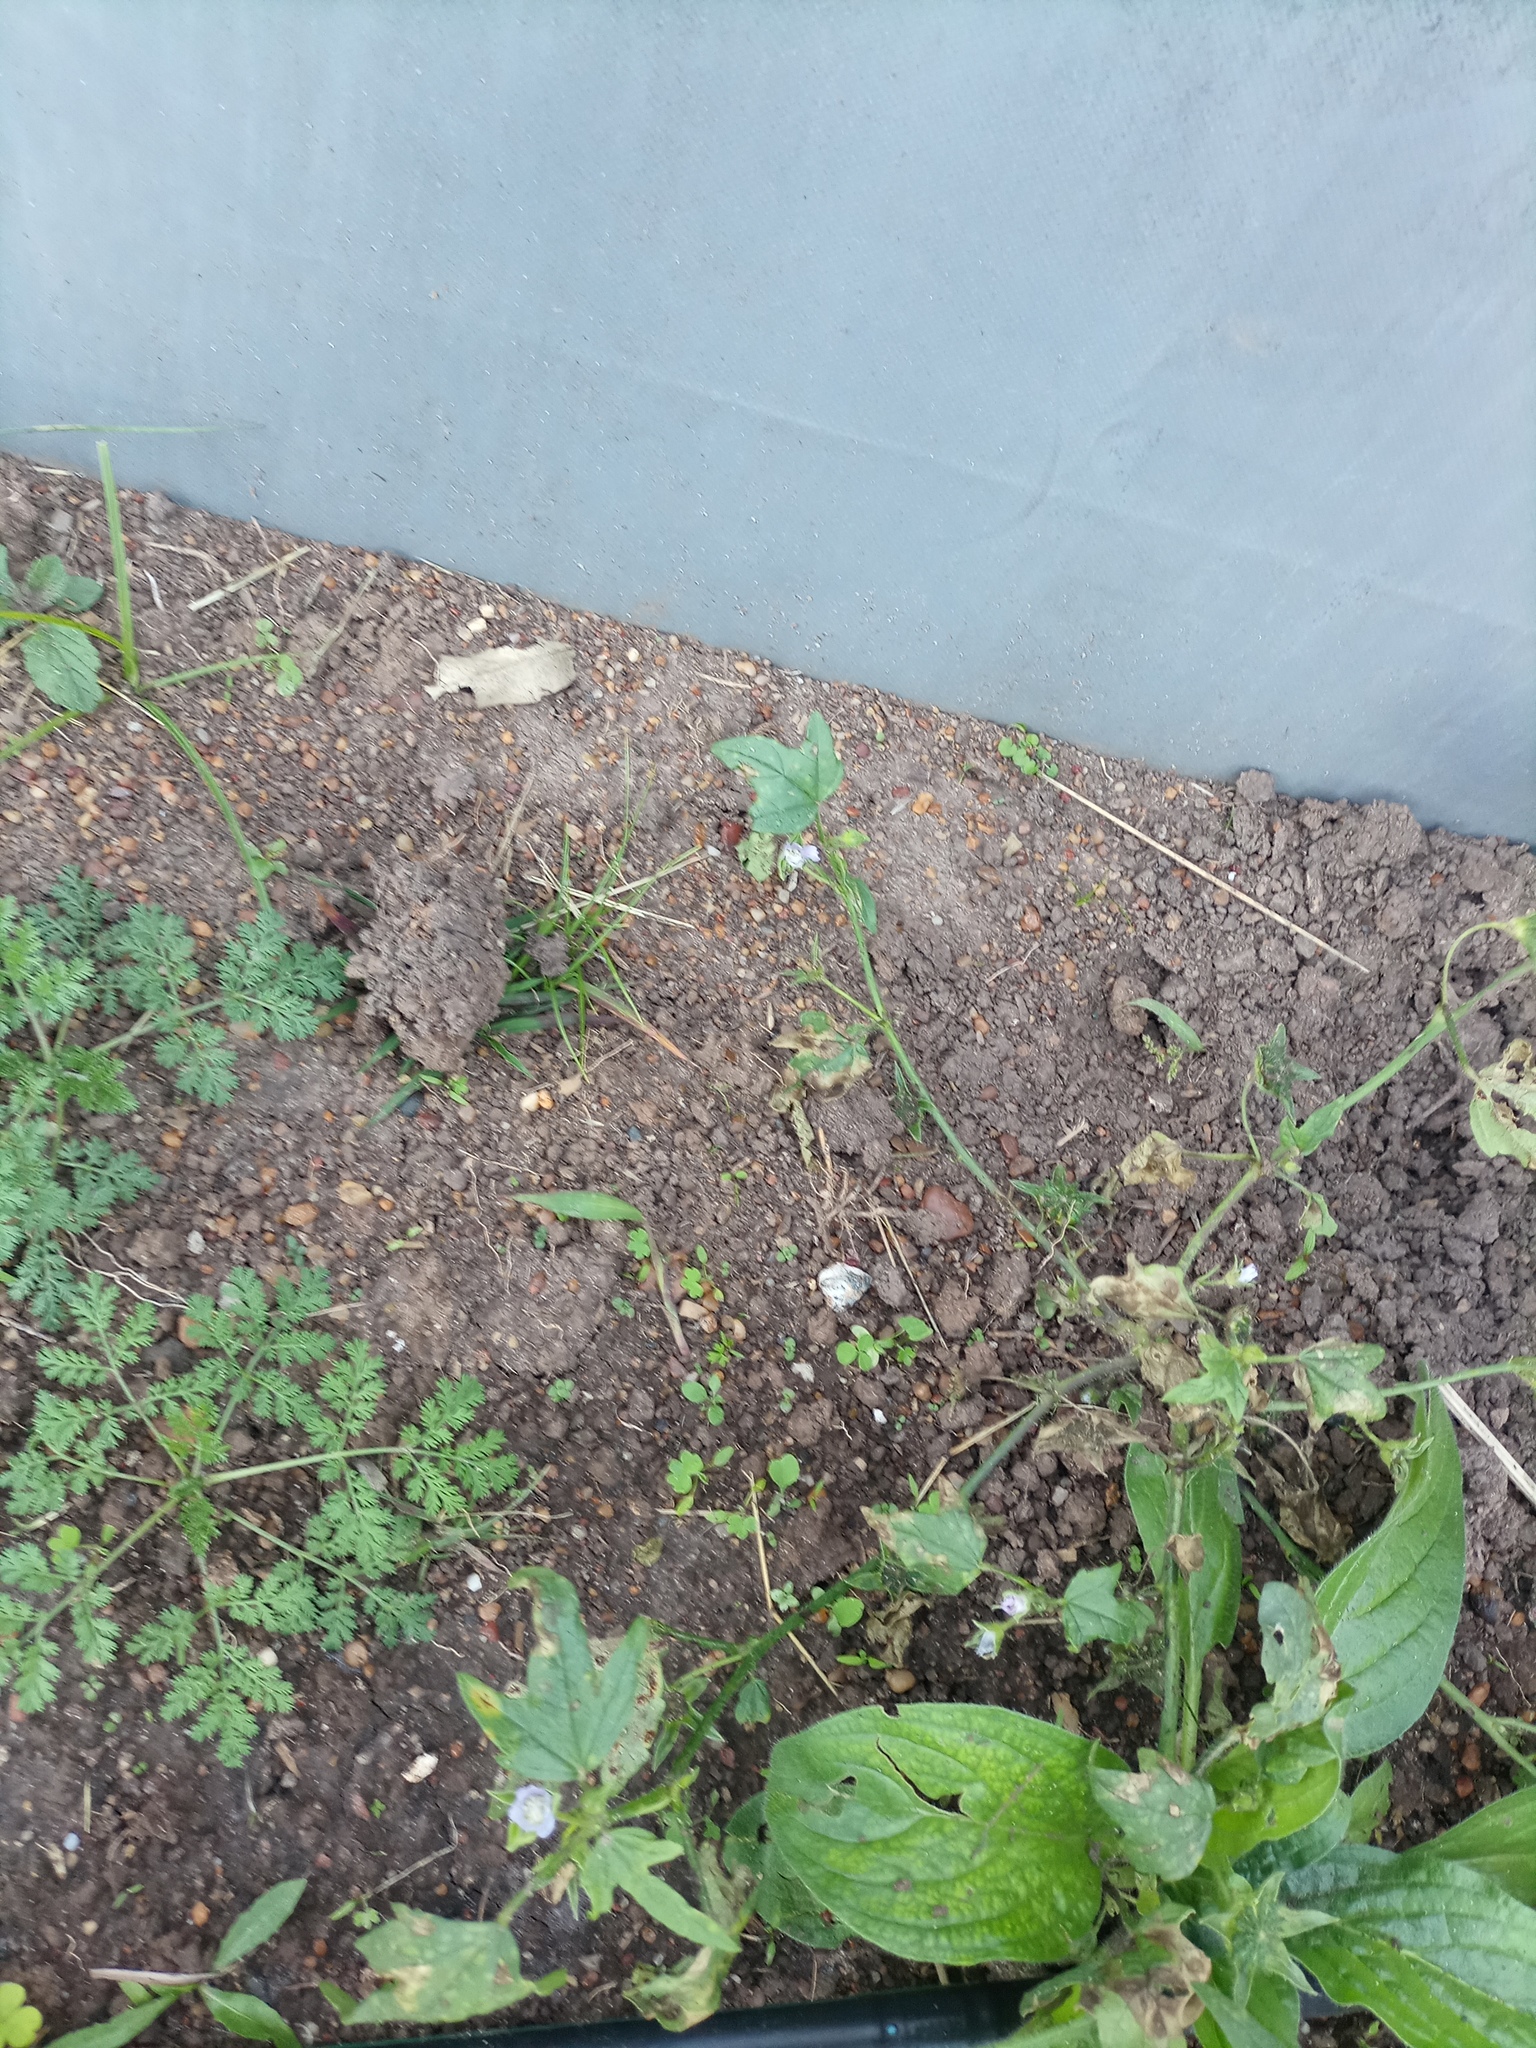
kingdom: Plantae
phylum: Tracheophyta
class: Magnoliopsida
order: Malvales
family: Malvaceae
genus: Anoda
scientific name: Anoda cristata
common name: Spurred anoda
